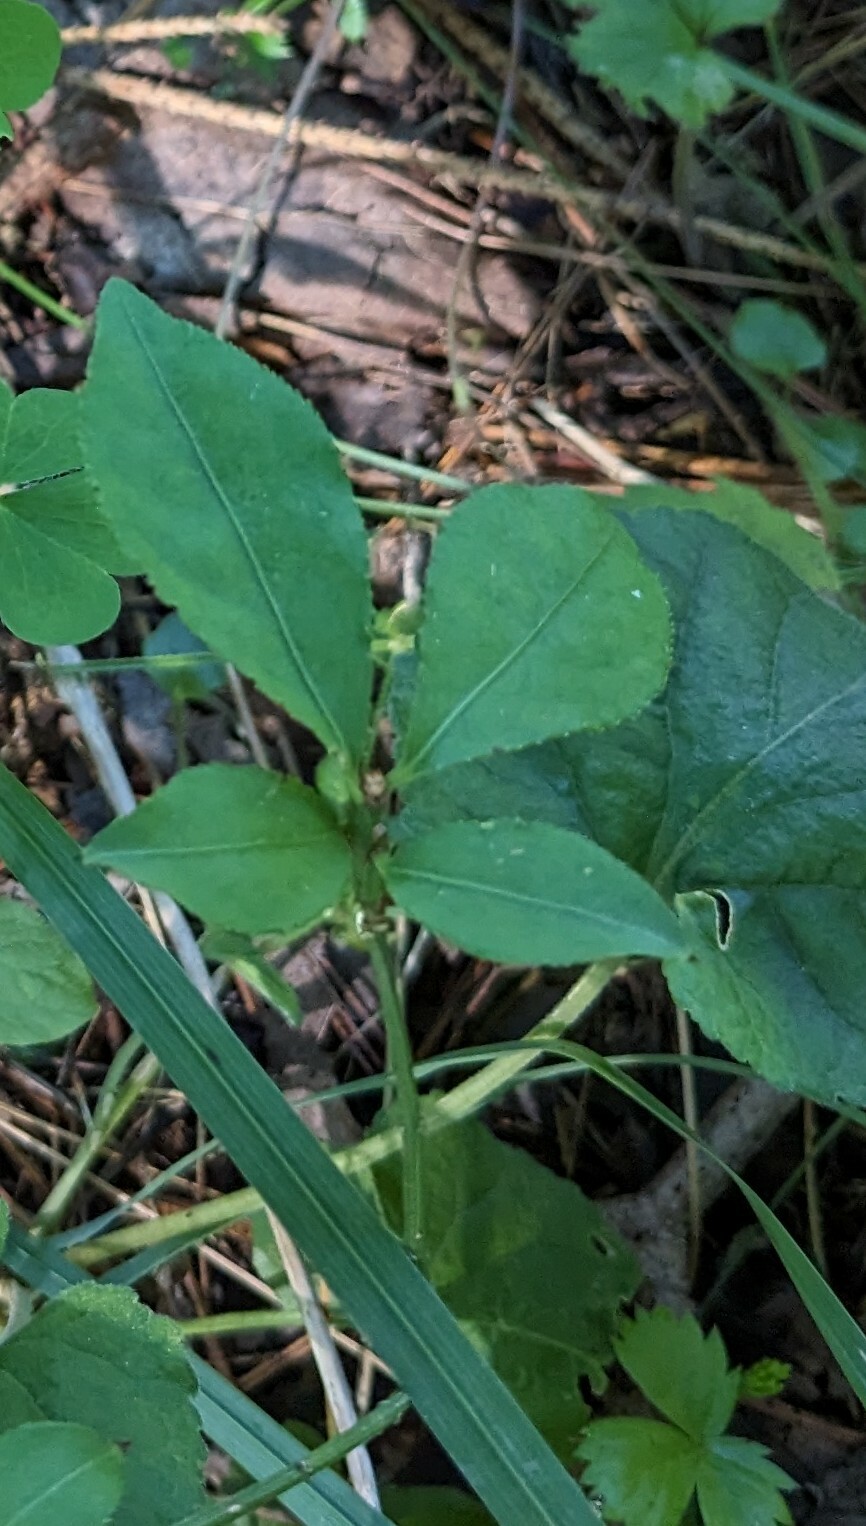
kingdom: Plantae
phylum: Tracheophyta
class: Magnoliopsida
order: Celastrales
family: Celastraceae
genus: Euonymus
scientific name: Euonymus alatus
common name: Winged euonymus
